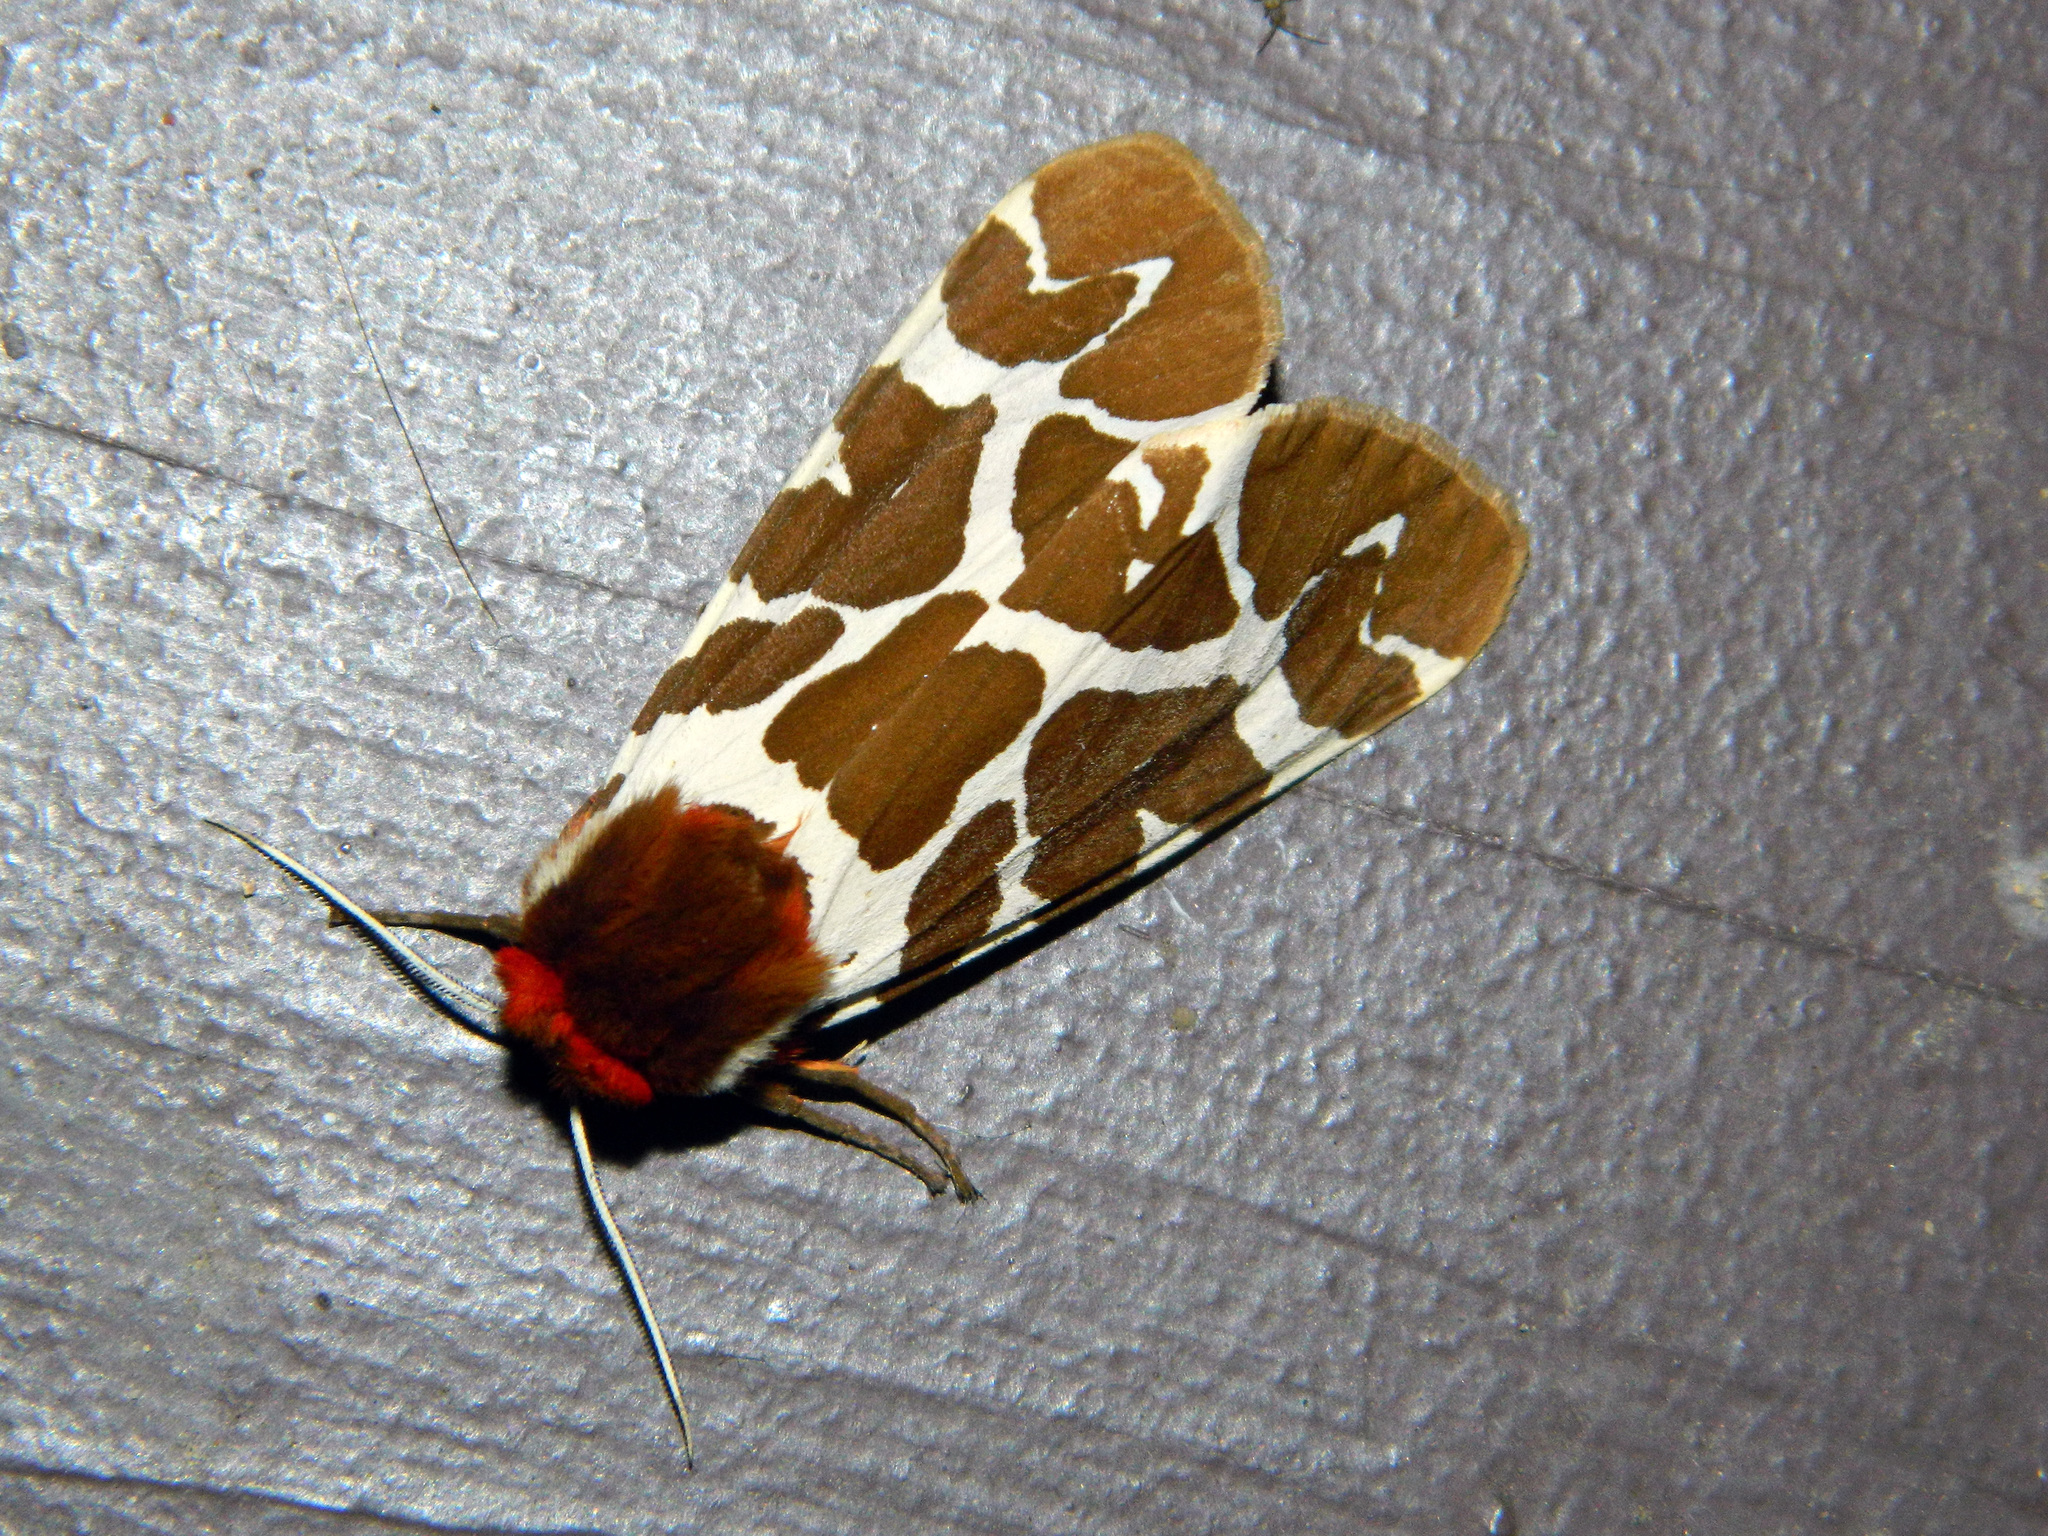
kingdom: Animalia
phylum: Arthropoda
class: Insecta
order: Lepidoptera
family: Erebidae
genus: Arctia
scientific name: Arctia caja
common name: Garden tiger
